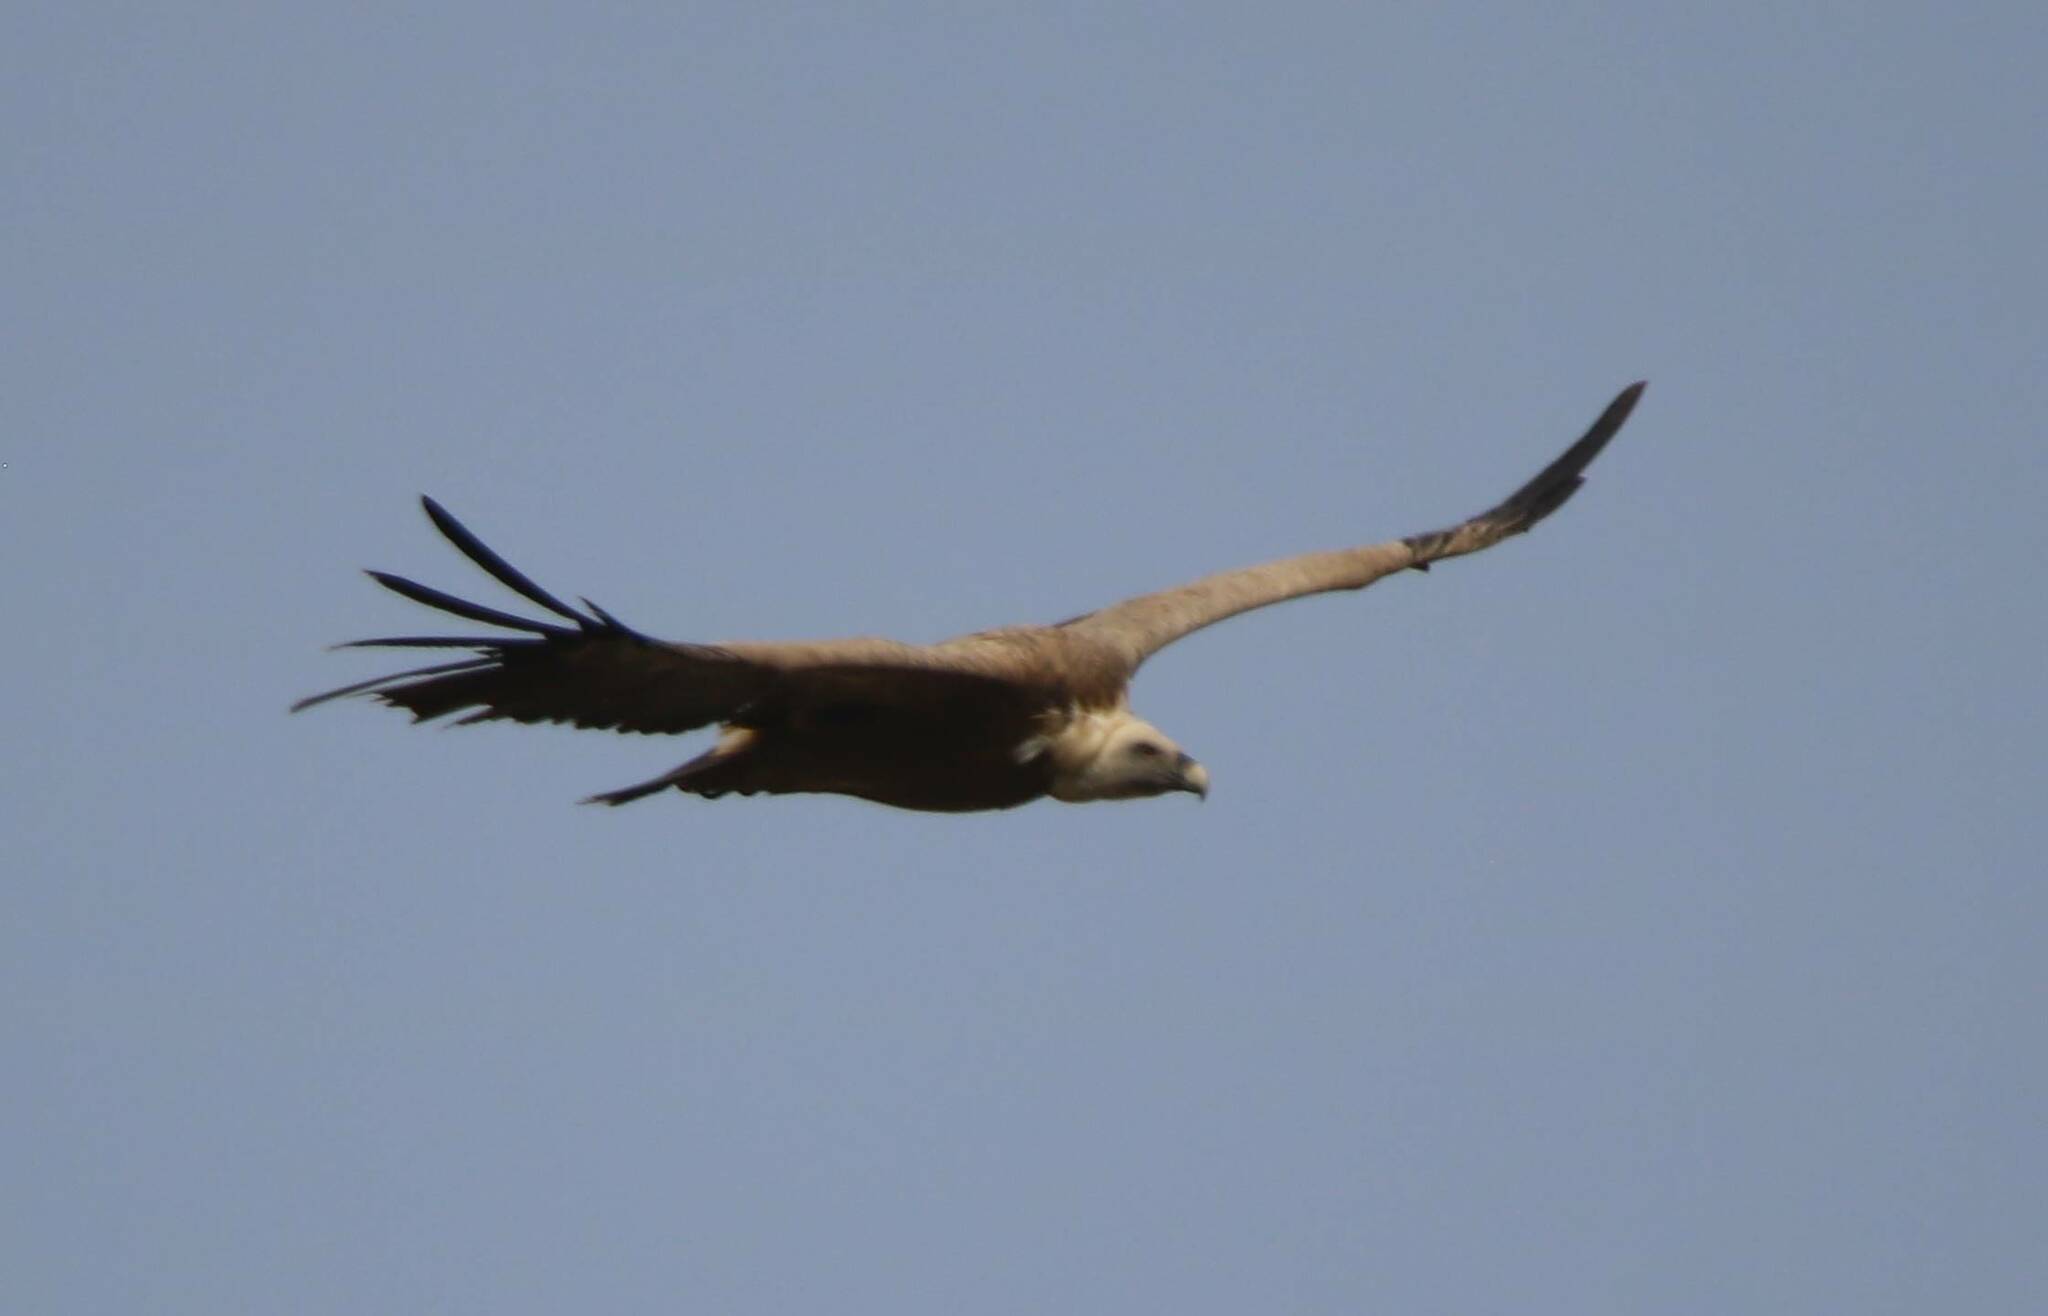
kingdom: Animalia
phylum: Chordata
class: Aves
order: Accipitriformes
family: Accipitridae
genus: Gyps
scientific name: Gyps fulvus
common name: Griffon vulture
